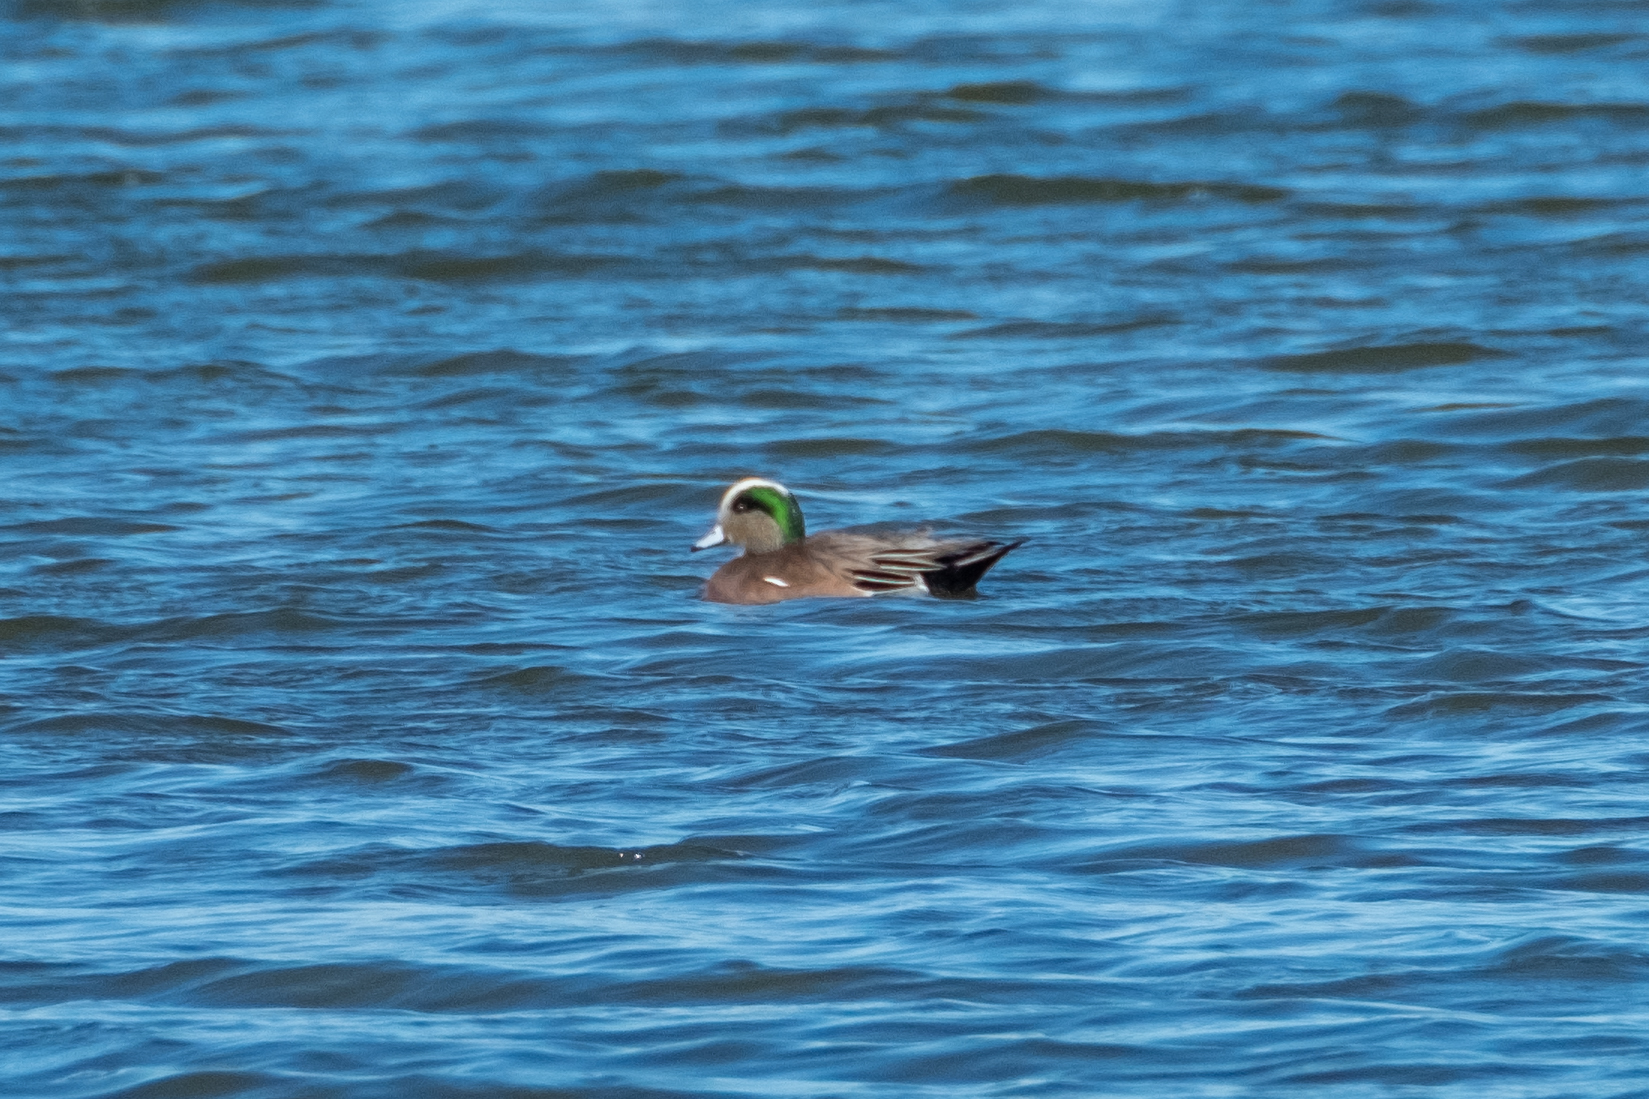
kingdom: Animalia
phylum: Chordata
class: Aves
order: Anseriformes
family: Anatidae
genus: Mareca
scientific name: Mareca americana
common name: American wigeon
